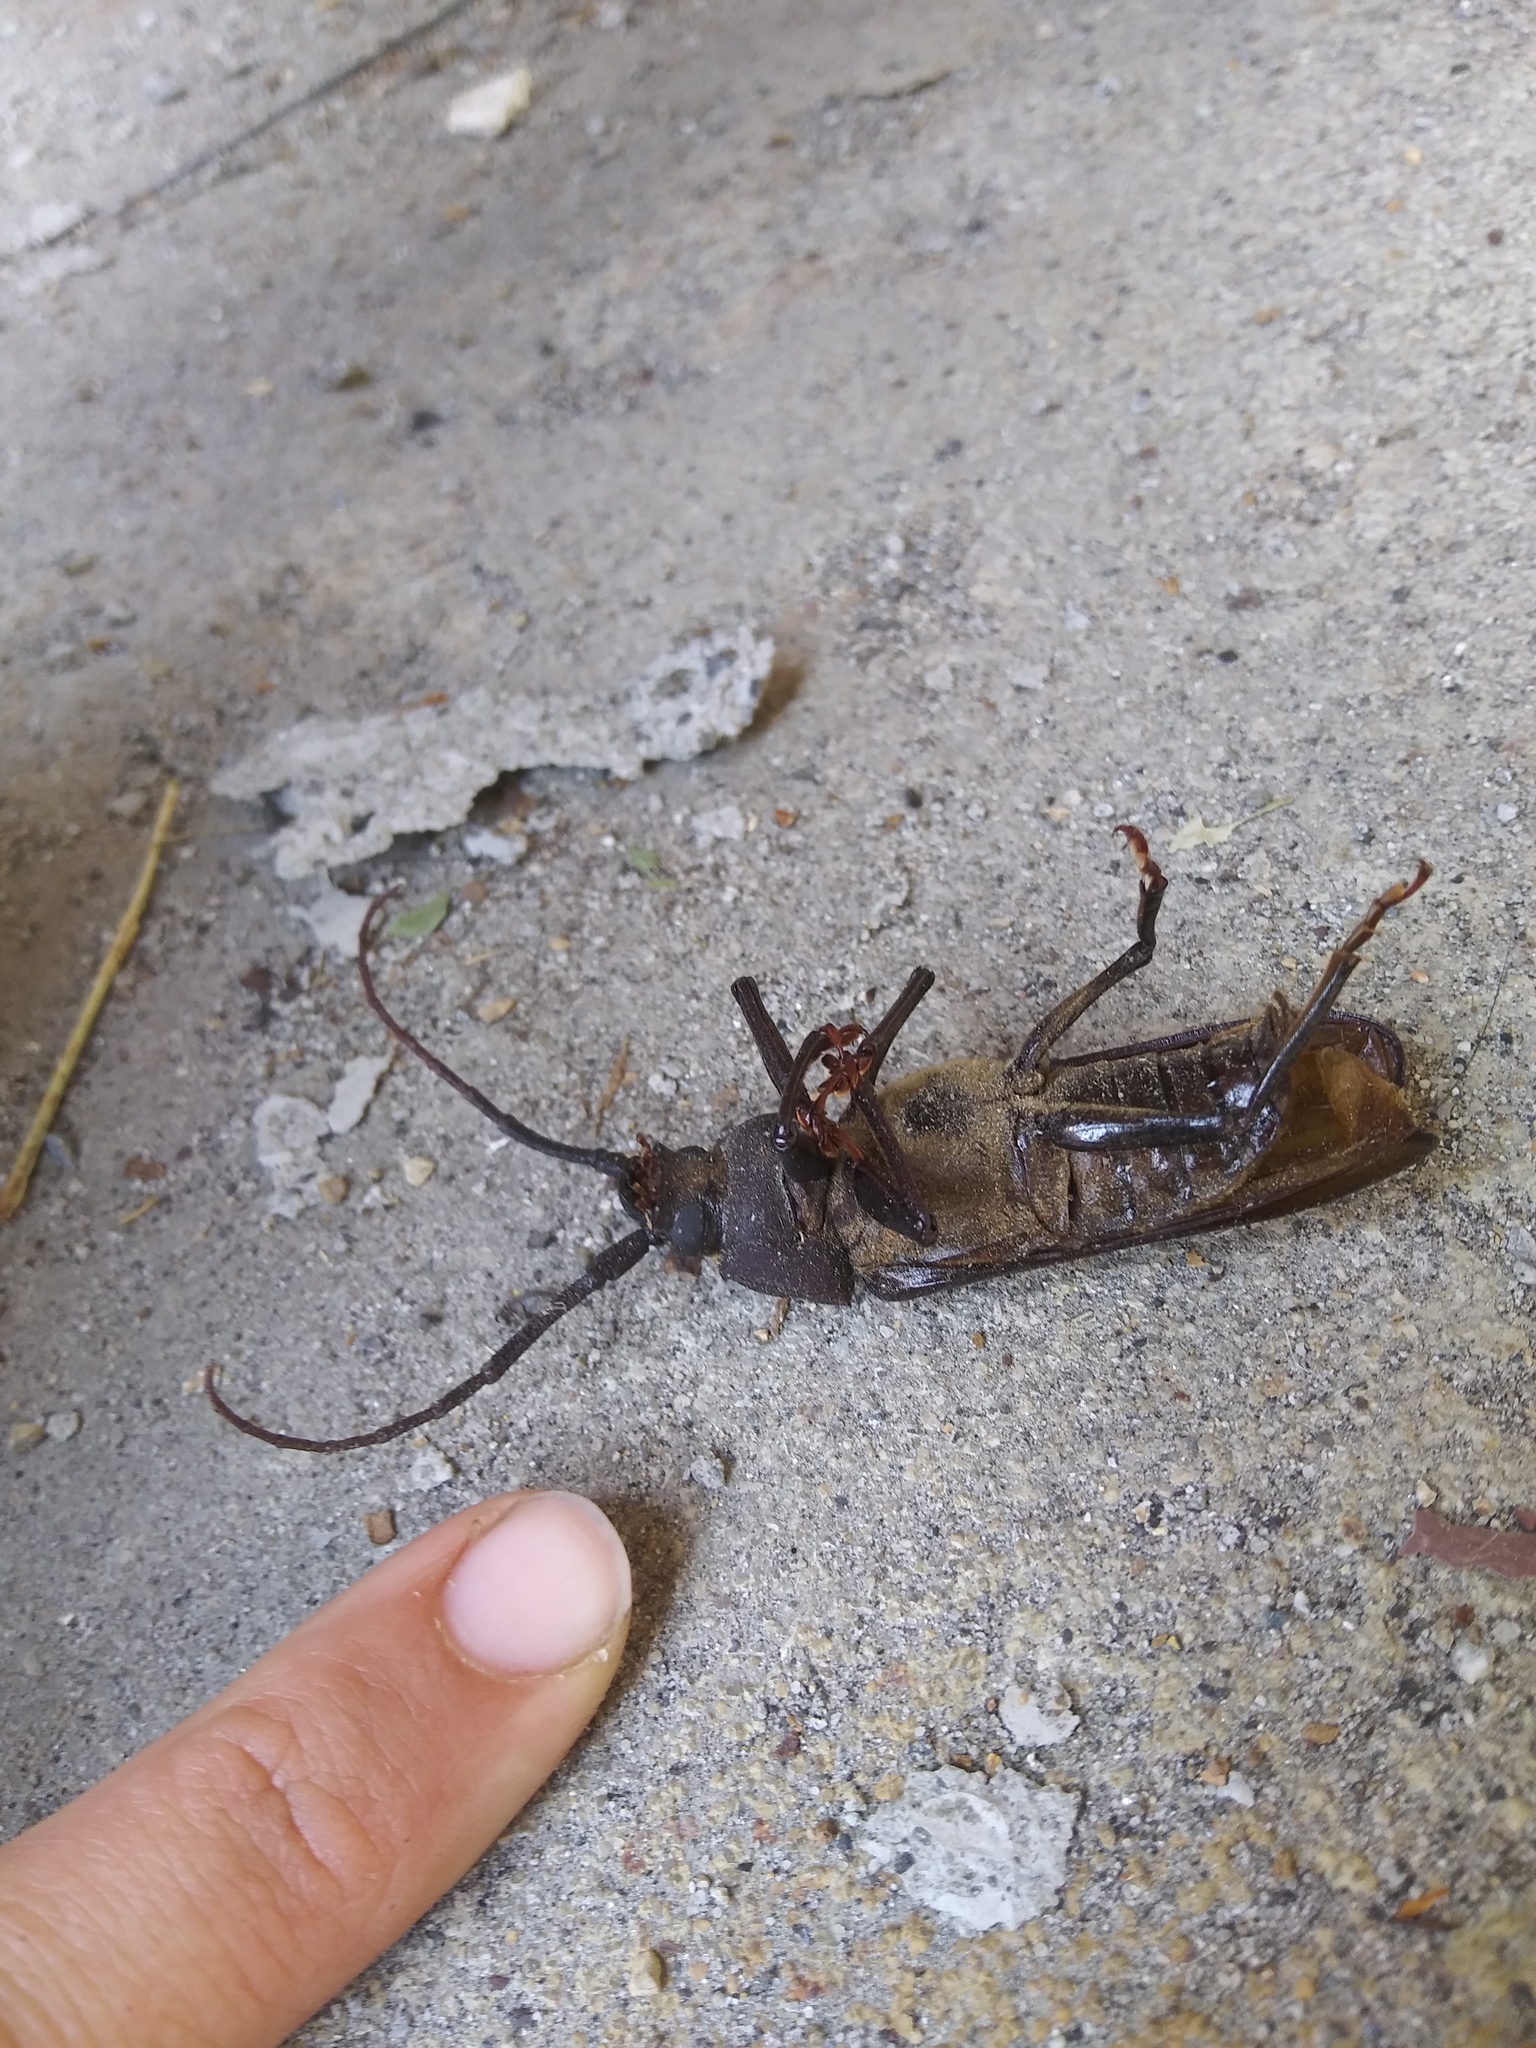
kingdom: Animalia
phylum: Arthropoda
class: Insecta
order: Coleoptera
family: Cerambycidae
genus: Trichocnemis
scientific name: Trichocnemis spiculatus
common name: Long-horned beetle
